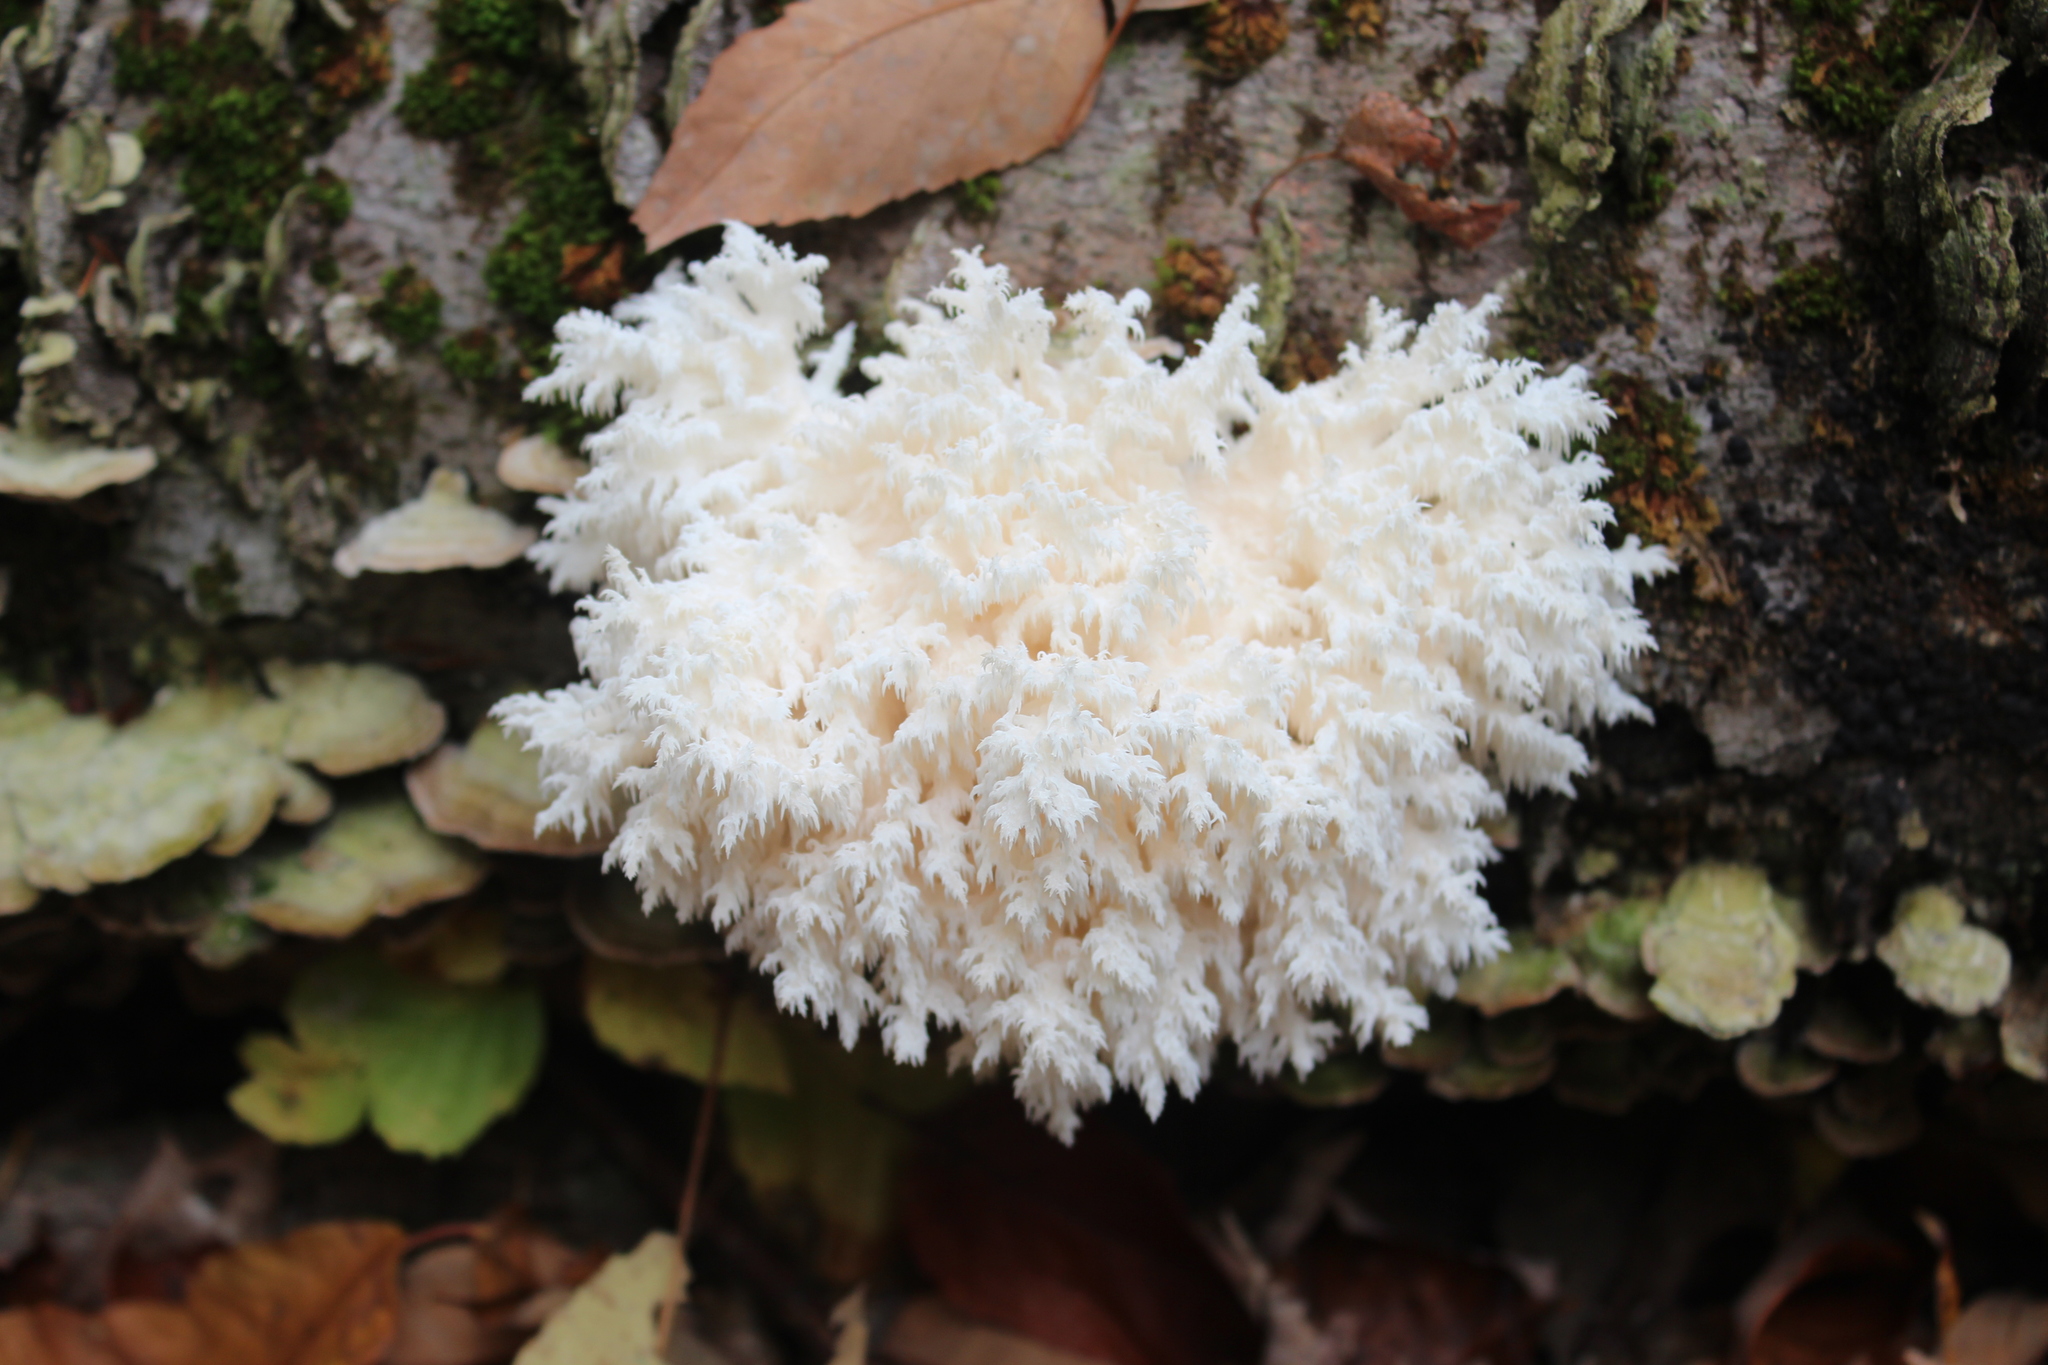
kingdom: Fungi
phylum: Basidiomycota
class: Agaricomycetes
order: Russulales
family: Hericiaceae
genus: Hericium
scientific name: Hericium coralloides
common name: Coral tooth
